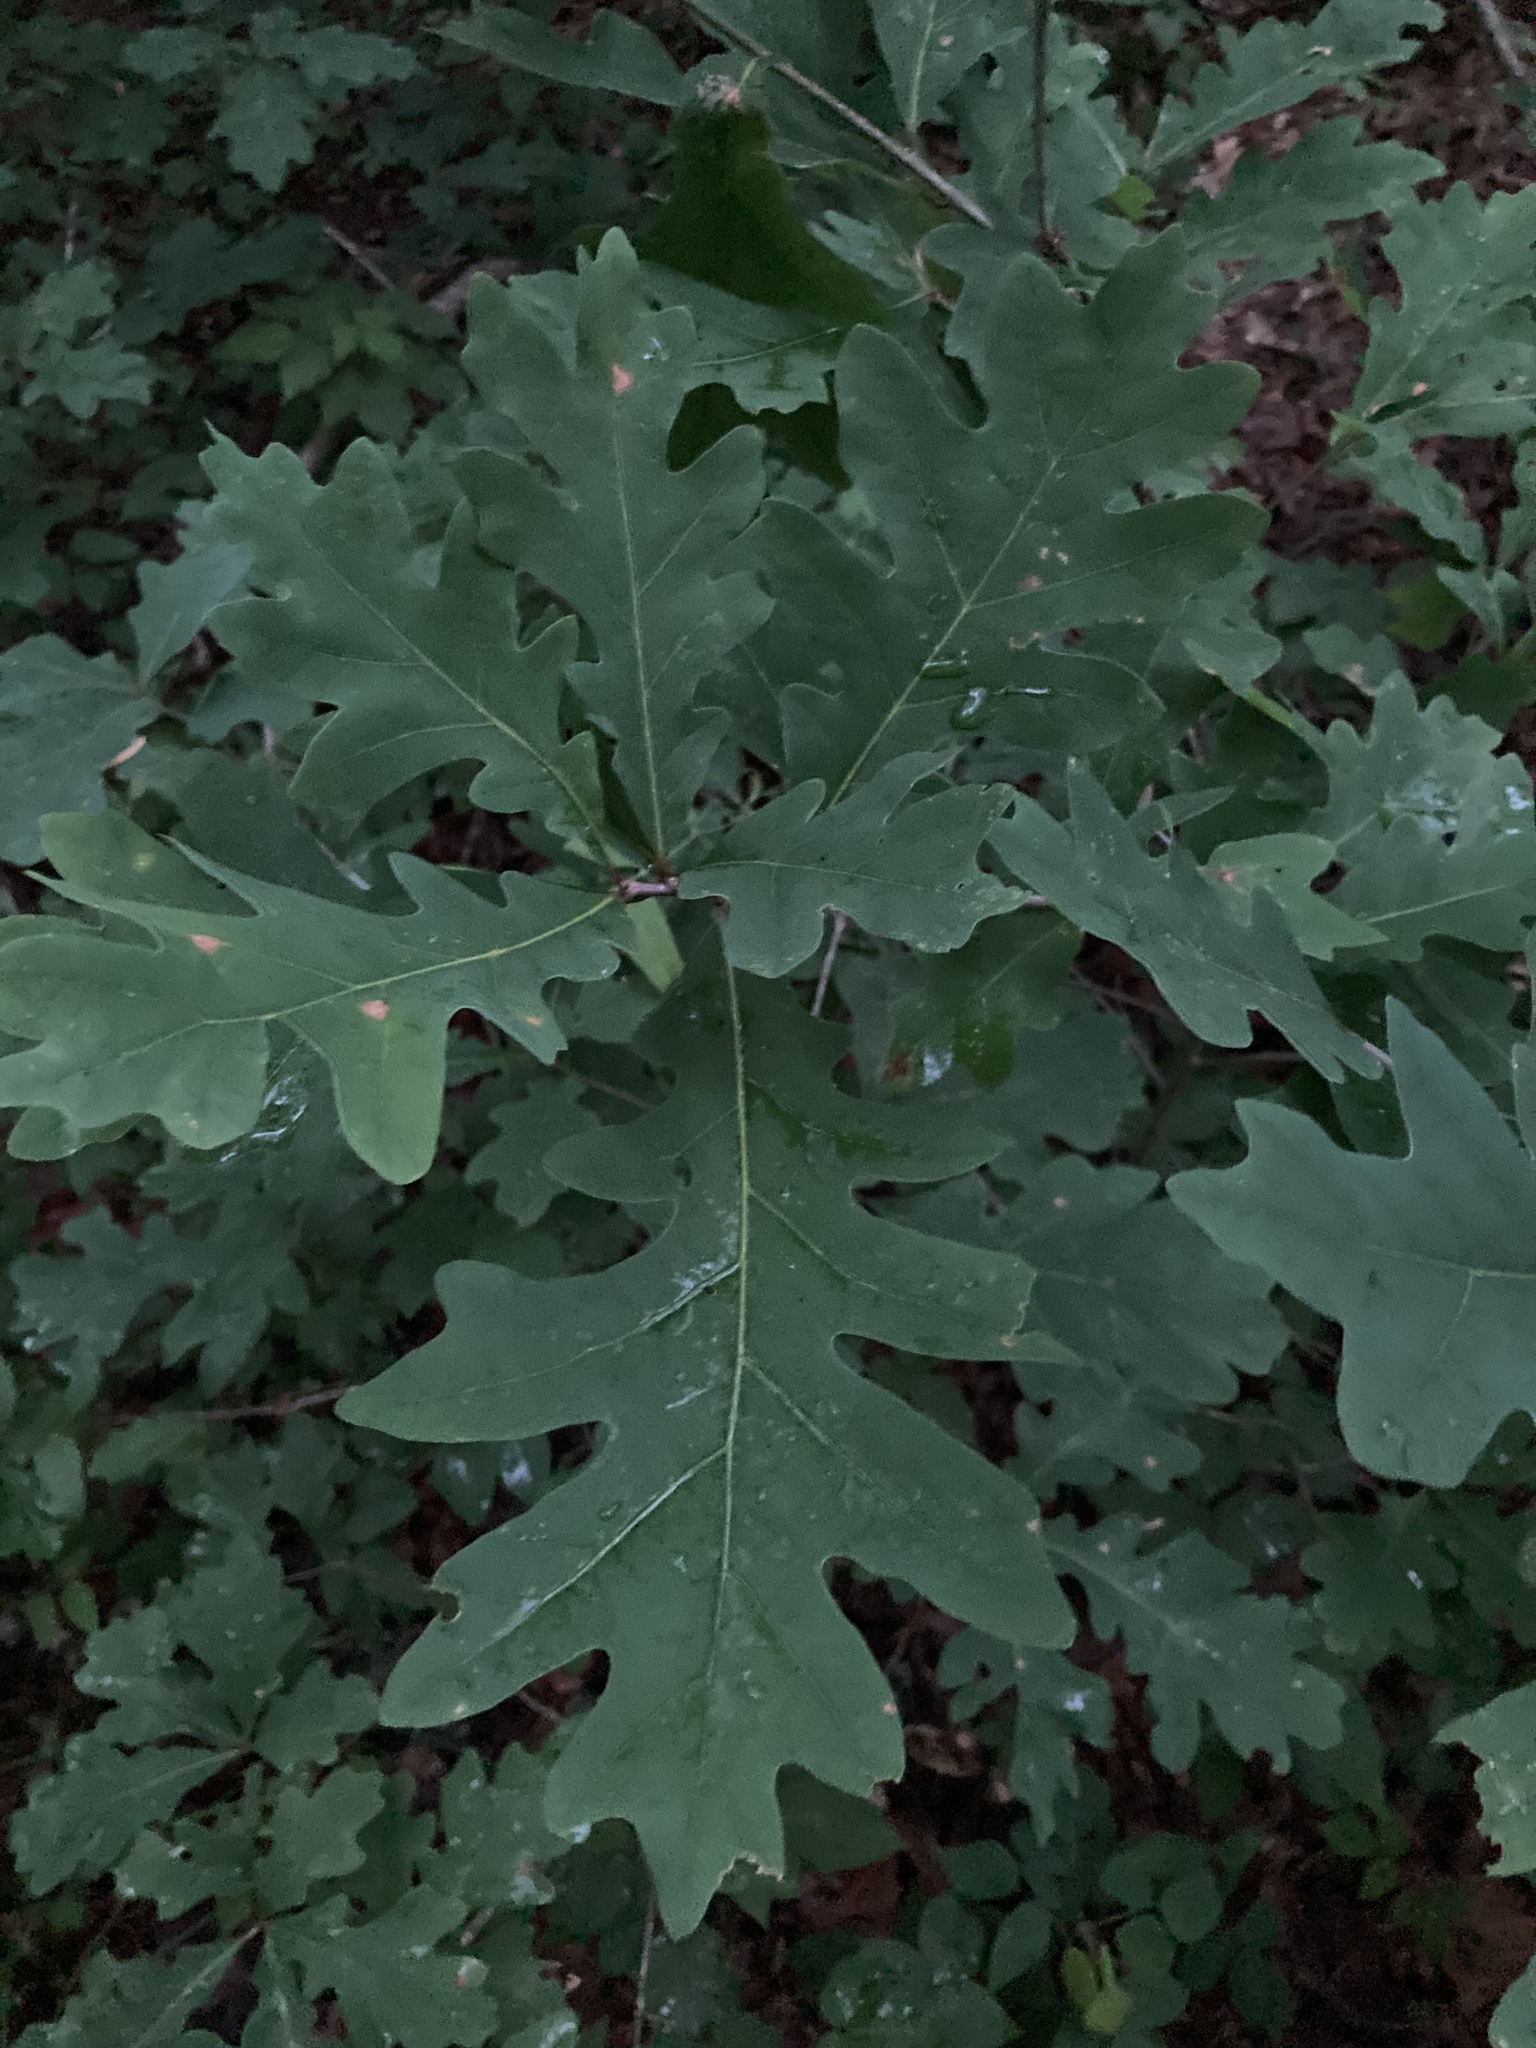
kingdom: Plantae
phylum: Tracheophyta
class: Magnoliopsida
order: Fagales
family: Fagaceae
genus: Quercus
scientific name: Quercus alba
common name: White oak
